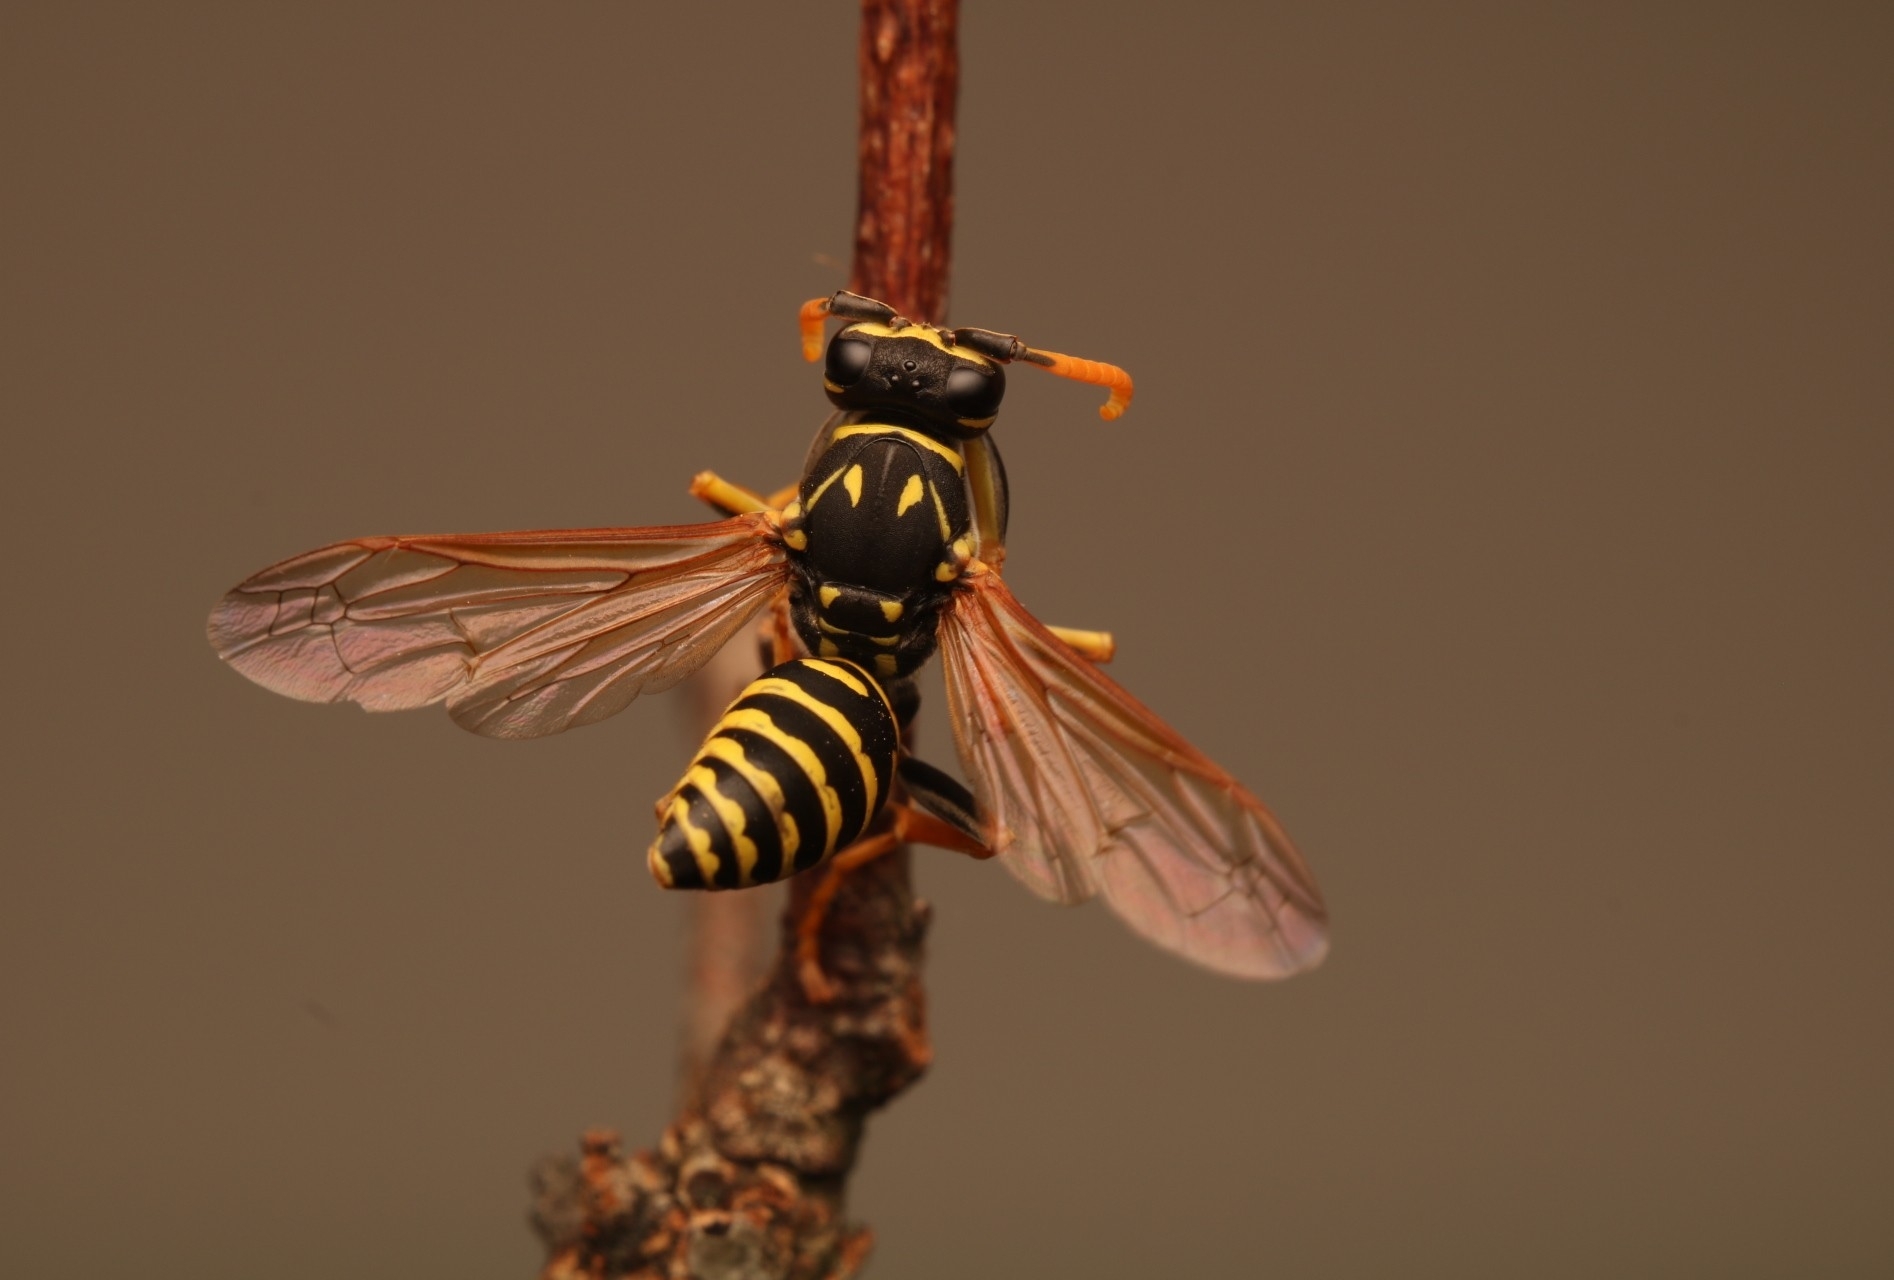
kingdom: Animalia
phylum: Arthropoda
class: Insecta
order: Hymenoptera
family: Eumenidae
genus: Polistes
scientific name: Polistes dominula
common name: Paper wasp
